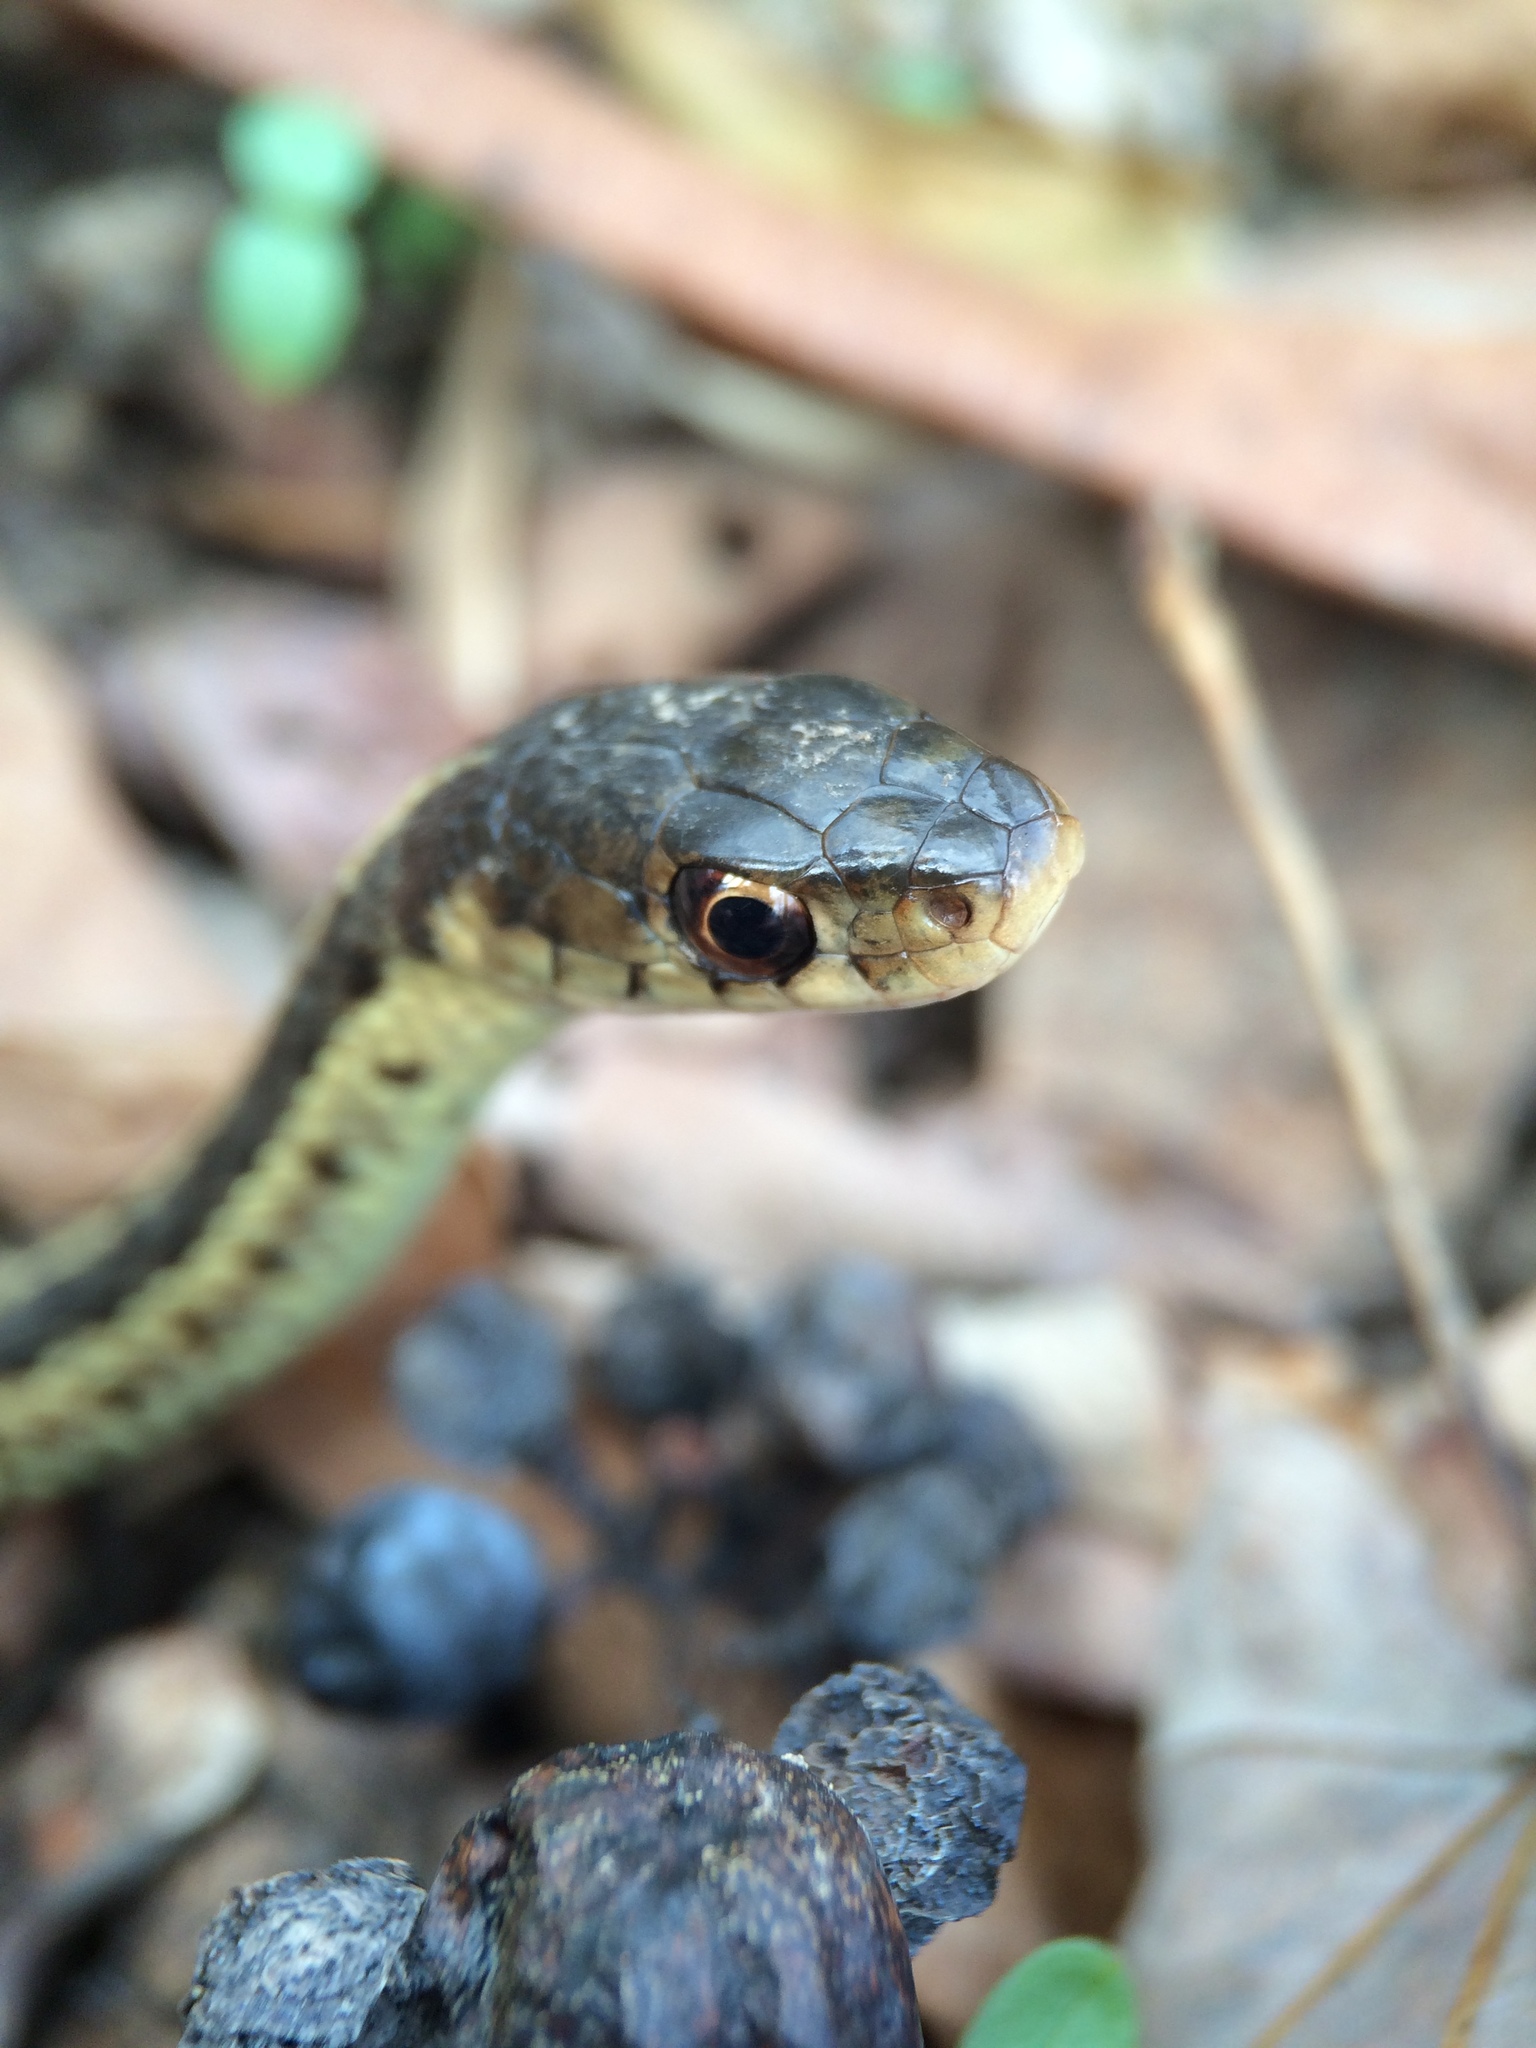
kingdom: Animalia
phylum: Chordata
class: Squamata
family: Colubridae
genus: Thamnophis
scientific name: Thamnophis sirtalis
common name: Common garter snake
